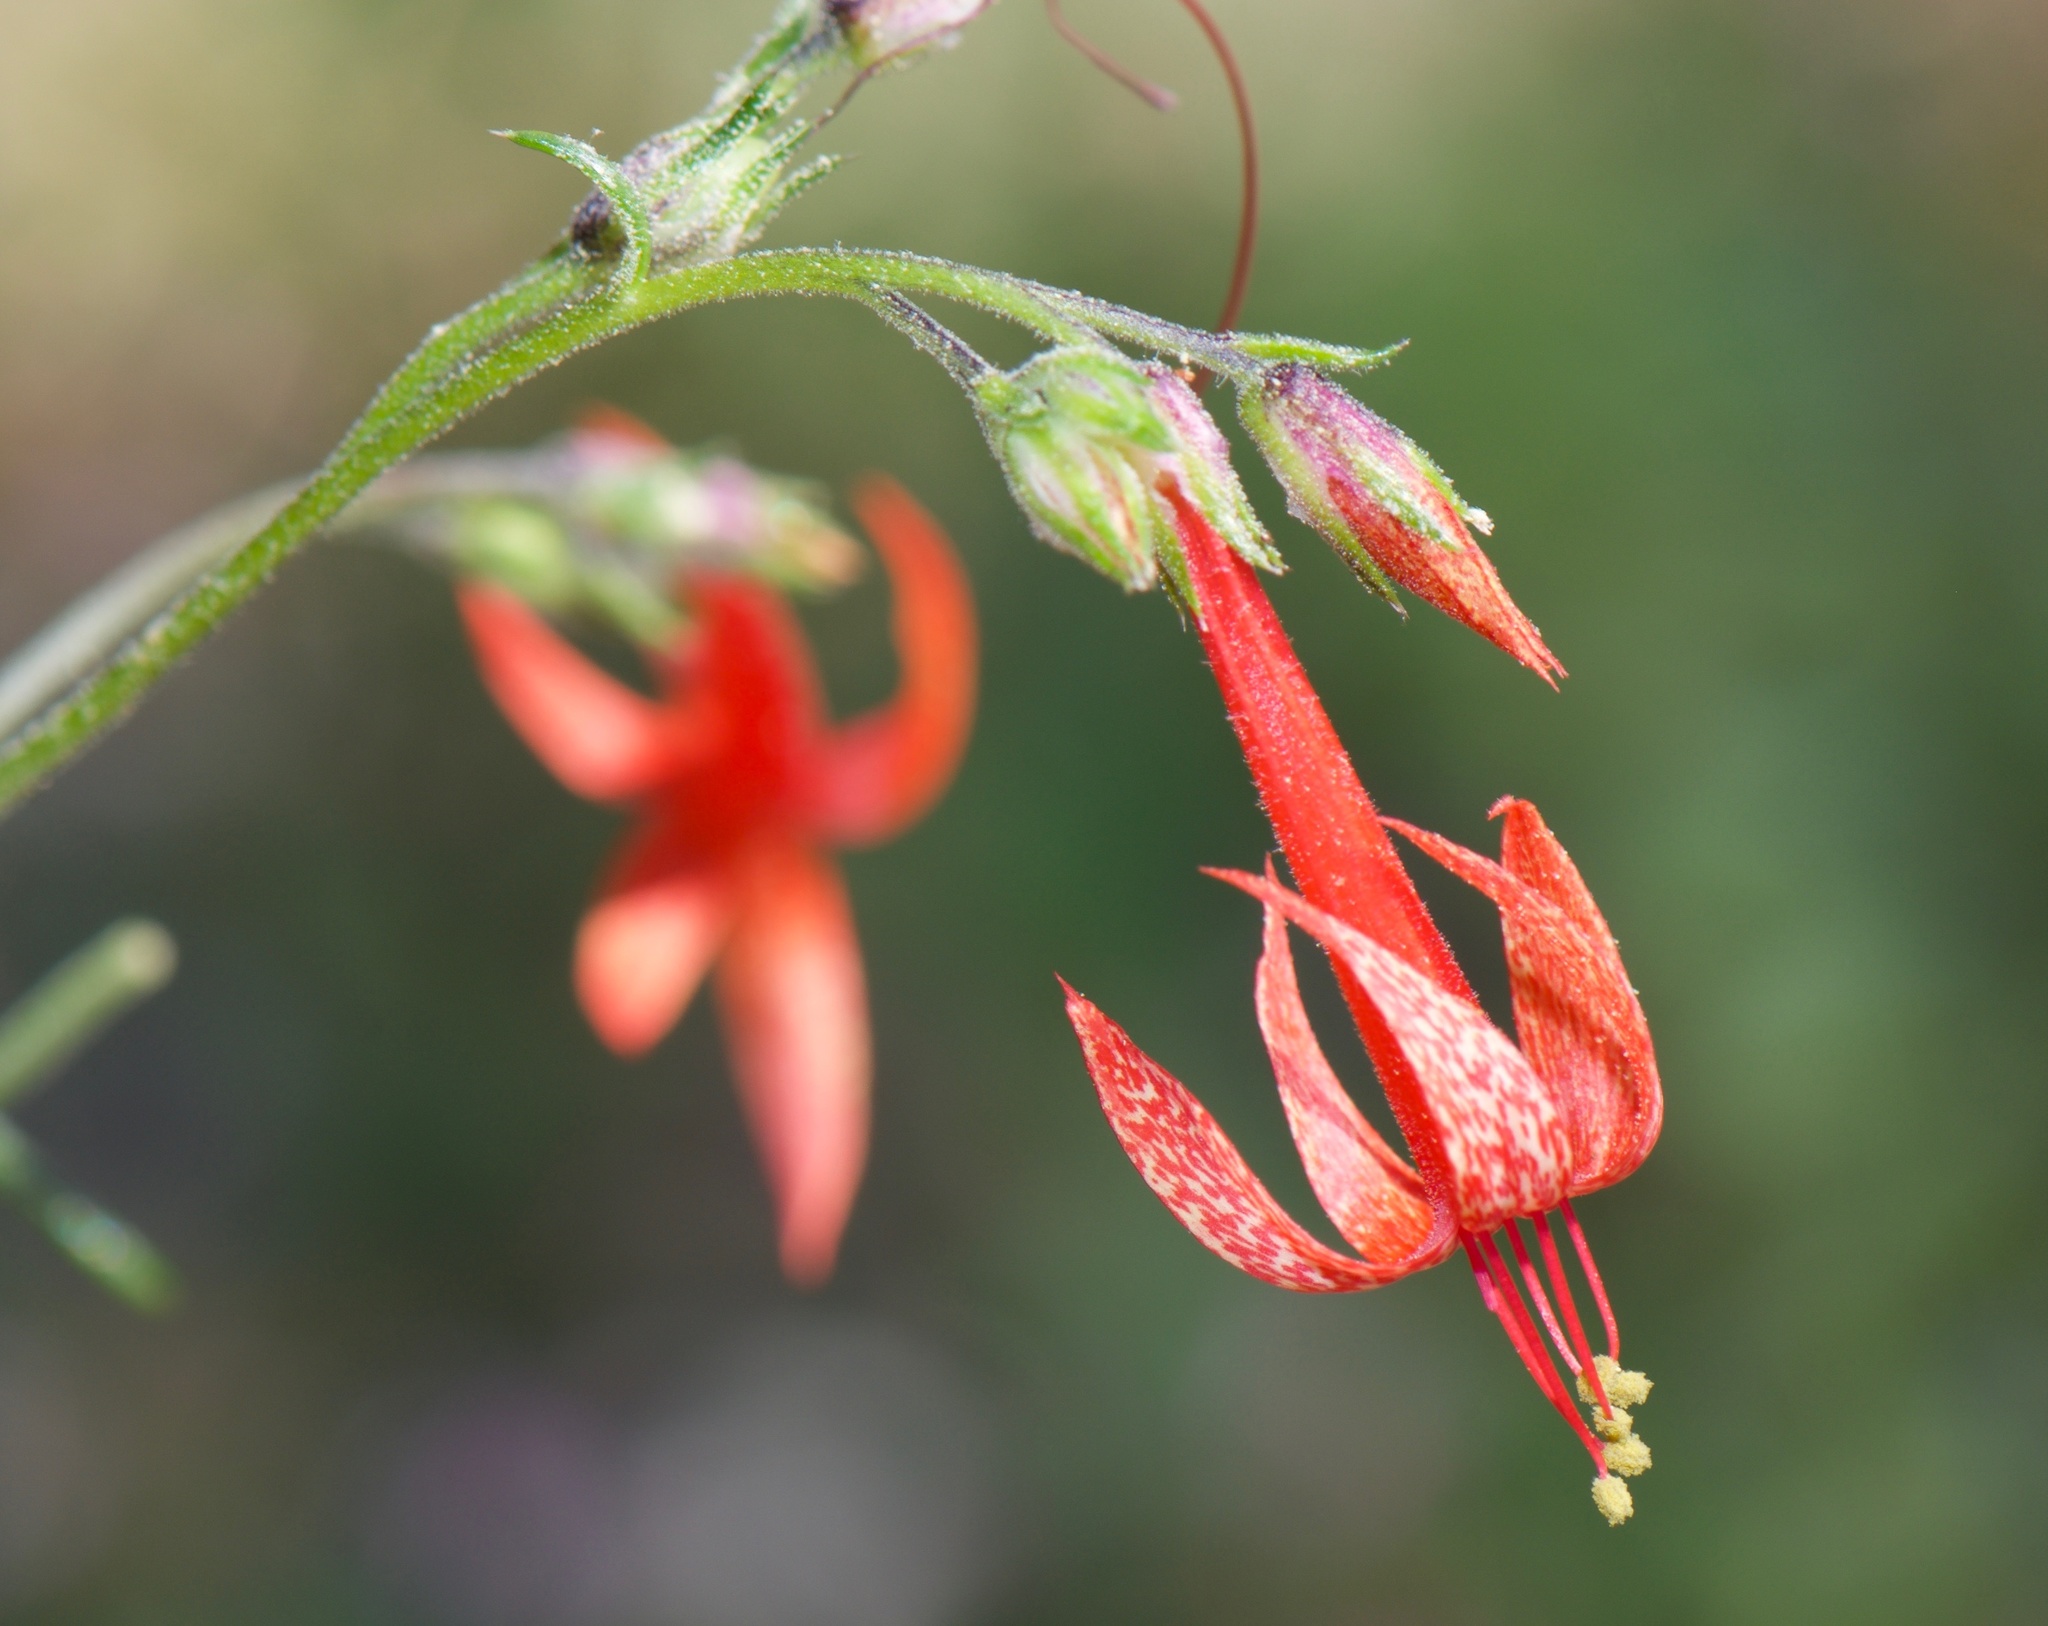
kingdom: Plantae
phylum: Tracheophyta
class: Magnoliopsida
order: Ericales
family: Polemoniaceae
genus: Ipomopsis
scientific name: Ipomopsis aggregata
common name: Scarlet gilia
